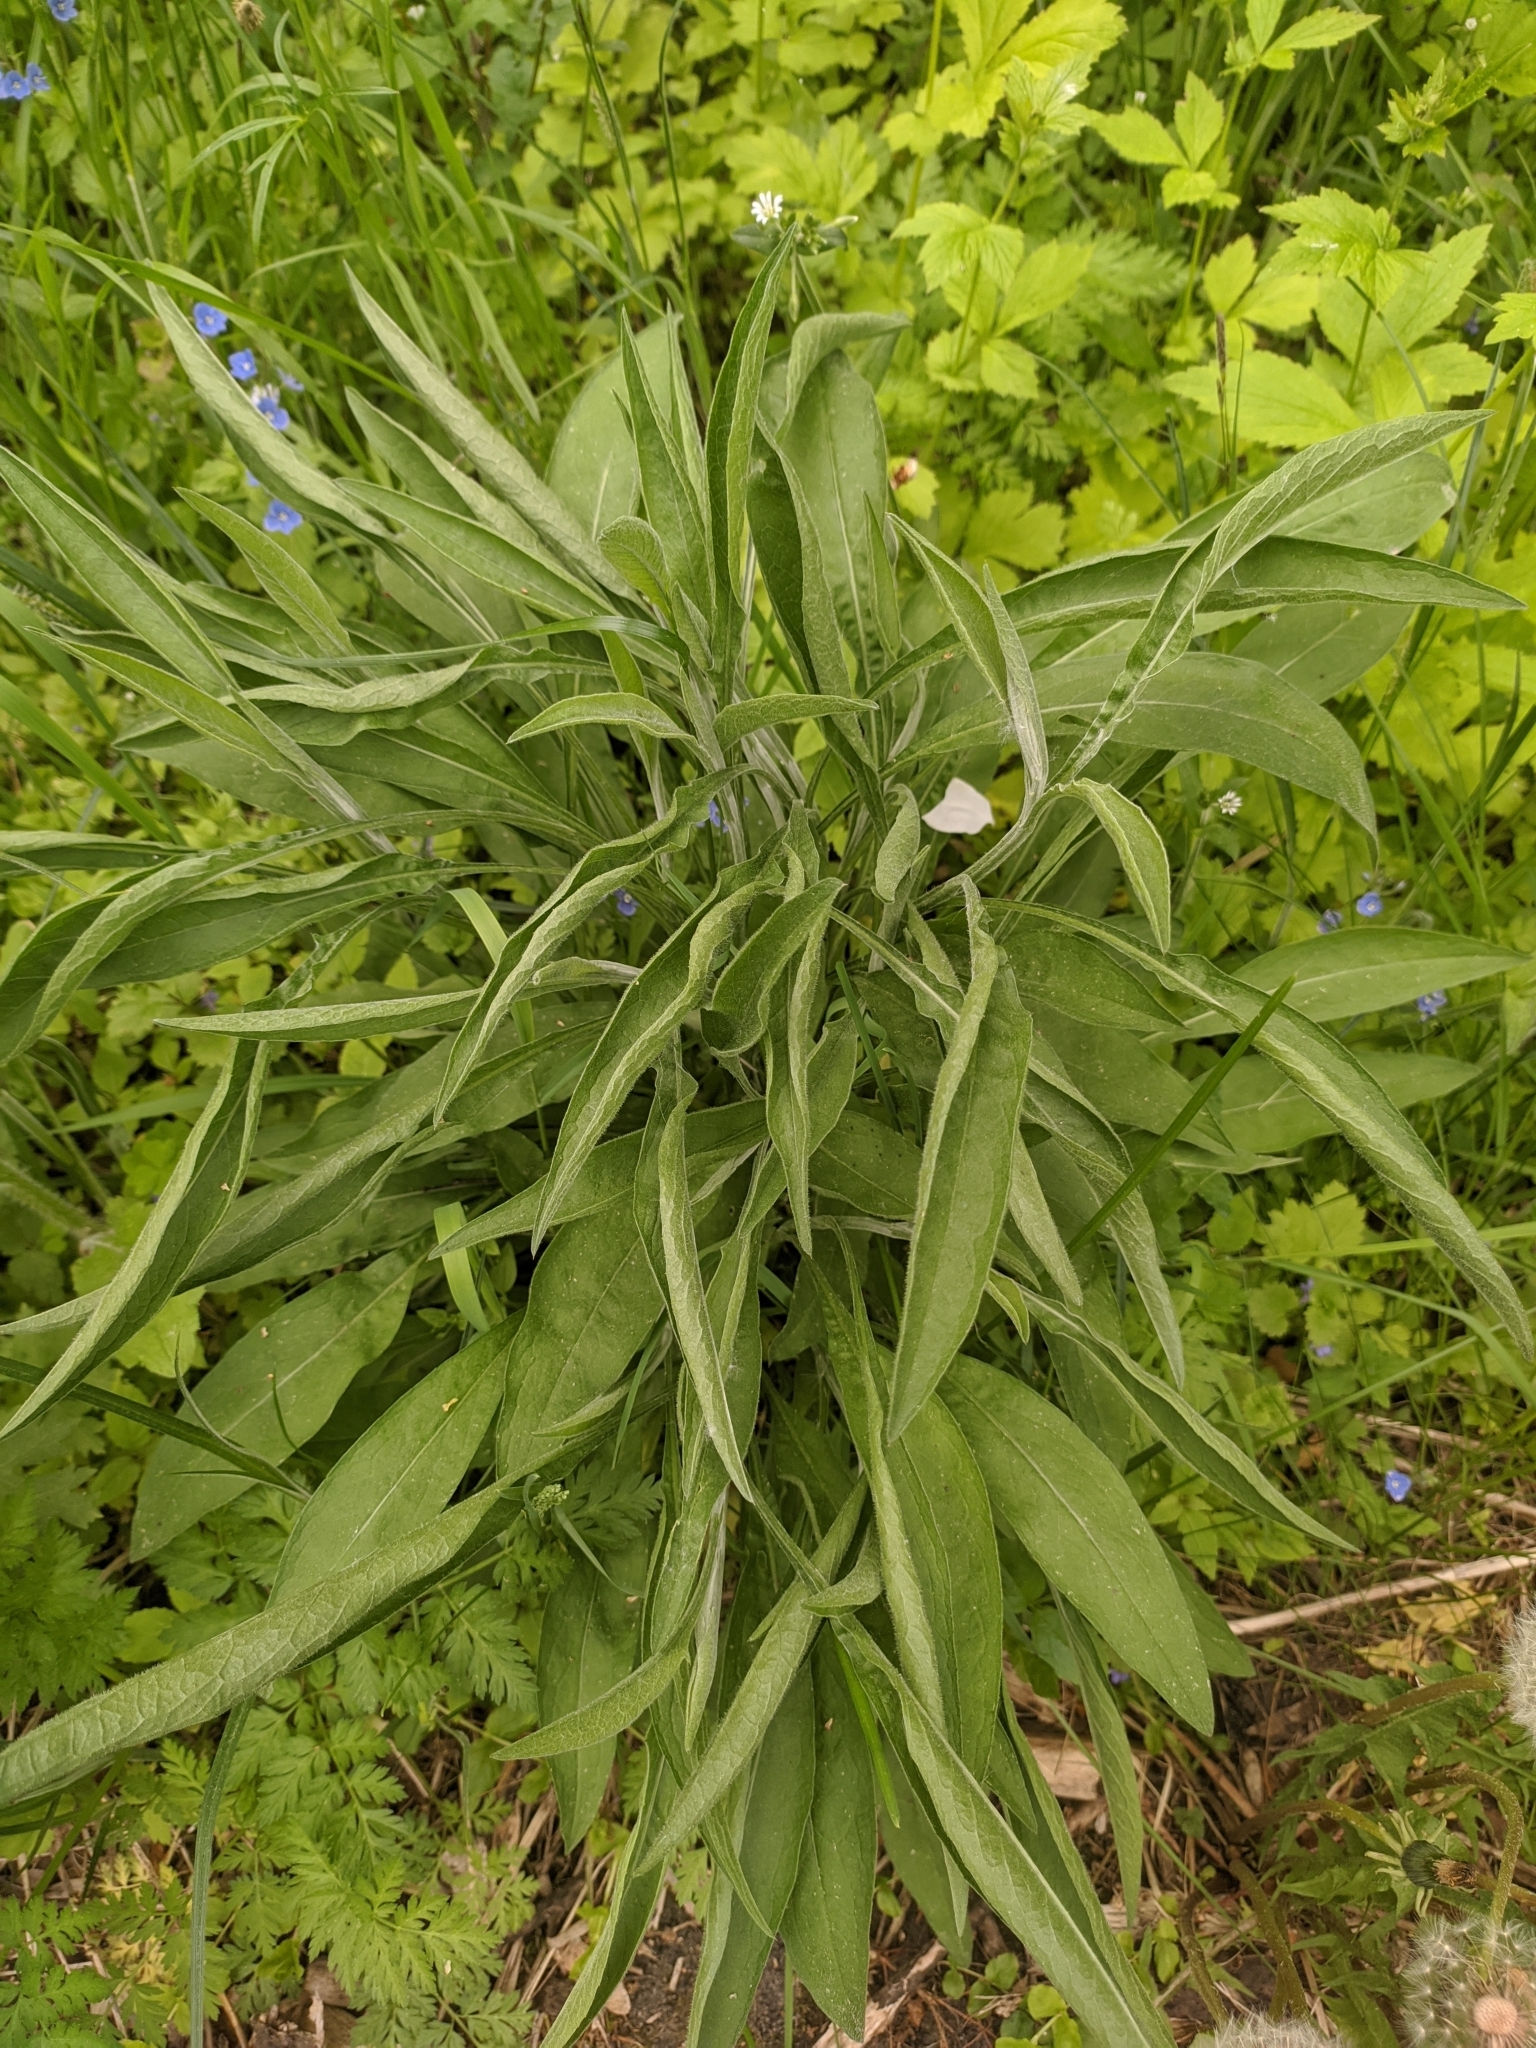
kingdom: Plantae
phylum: Tracheophyta
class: Magnoliopsida
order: Asterales
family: Asteraceae
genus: Centaurea
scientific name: Centaurea jacea
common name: Brown knapweed
